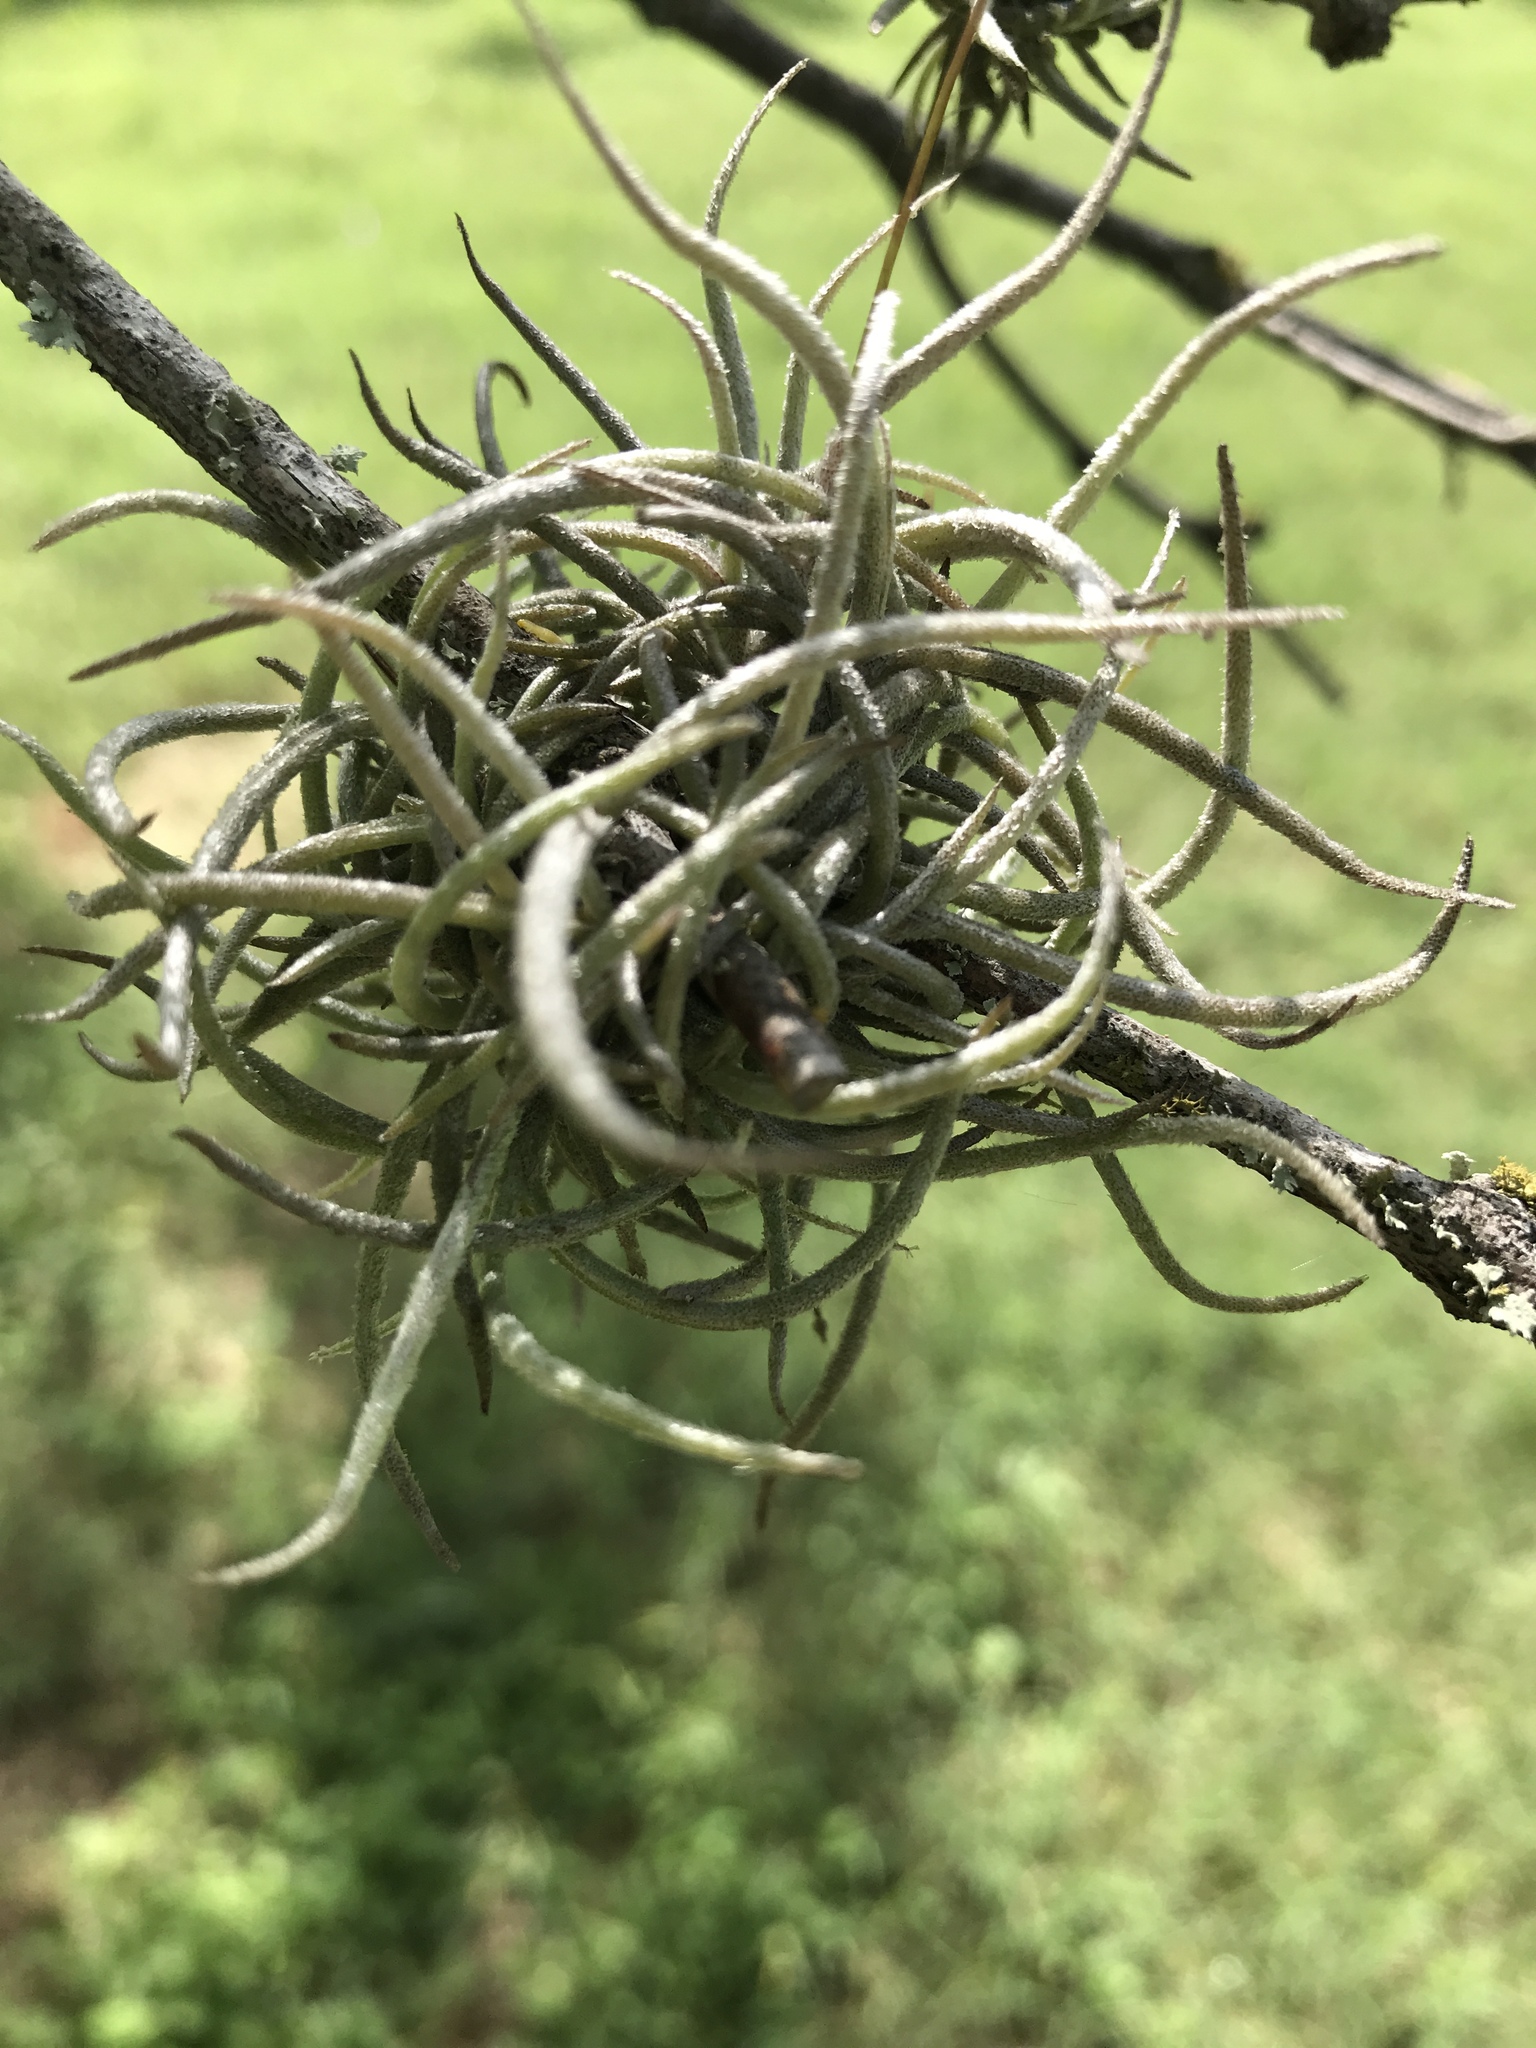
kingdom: Plantae
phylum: Tracheophyta
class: Liliopsida
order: Poales
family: Bromeliaceae
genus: Tillandsia
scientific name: Tillandsia recurvata
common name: Small ballmoss
